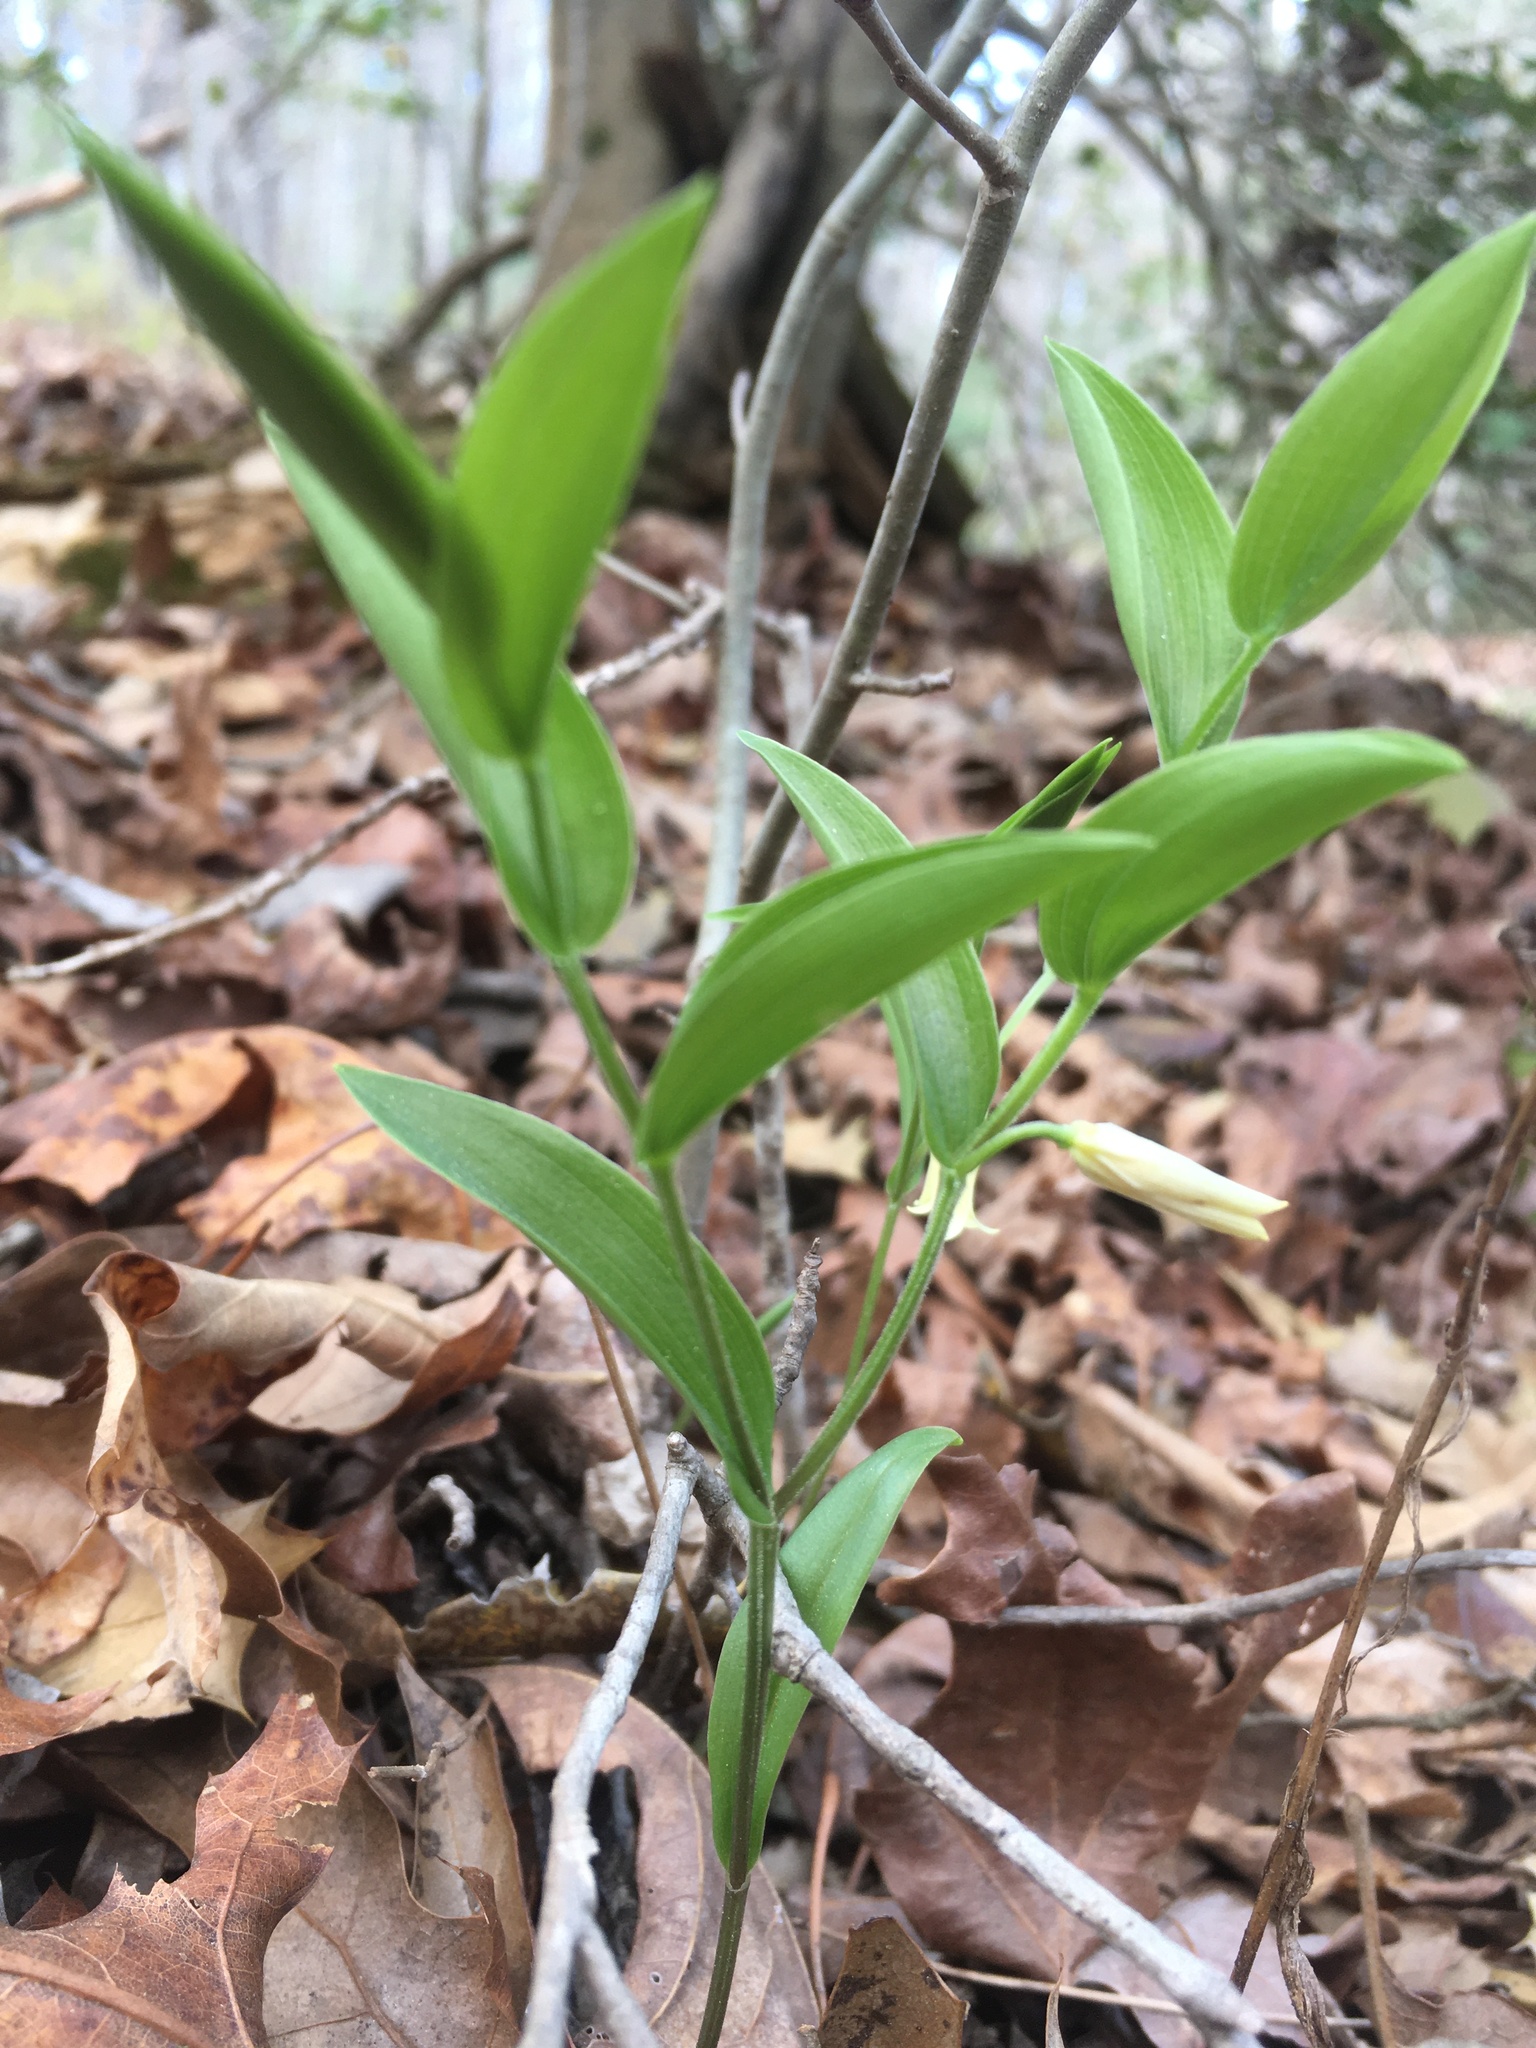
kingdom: Plantae
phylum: Tracheophyta
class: Liliopsida
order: Liliales
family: Colchicaceae
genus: Uvularia
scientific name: Uvularia puberula
